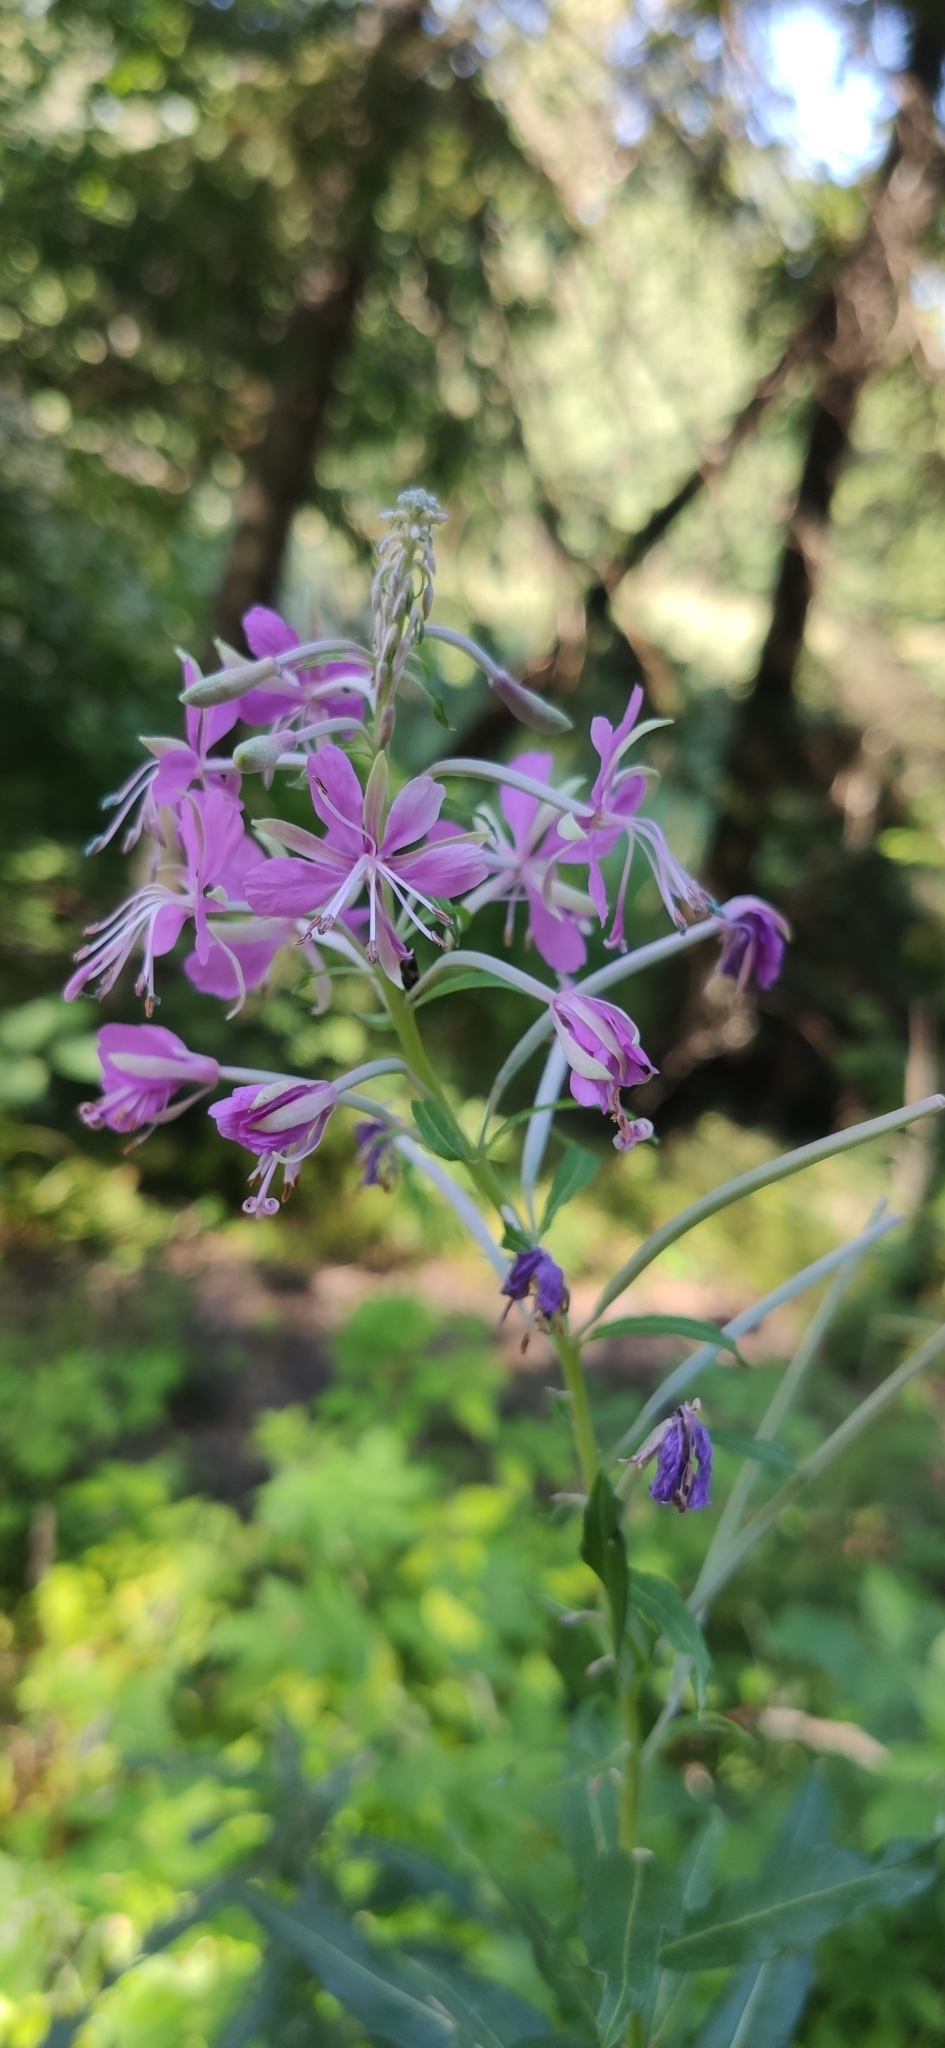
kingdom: Plantae
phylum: Tracheophyta
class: Magnoliopsida
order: Myrtales
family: Onagraceae
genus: Chamaenerion
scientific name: Chamaenerion angustifolium
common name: Fireweed
